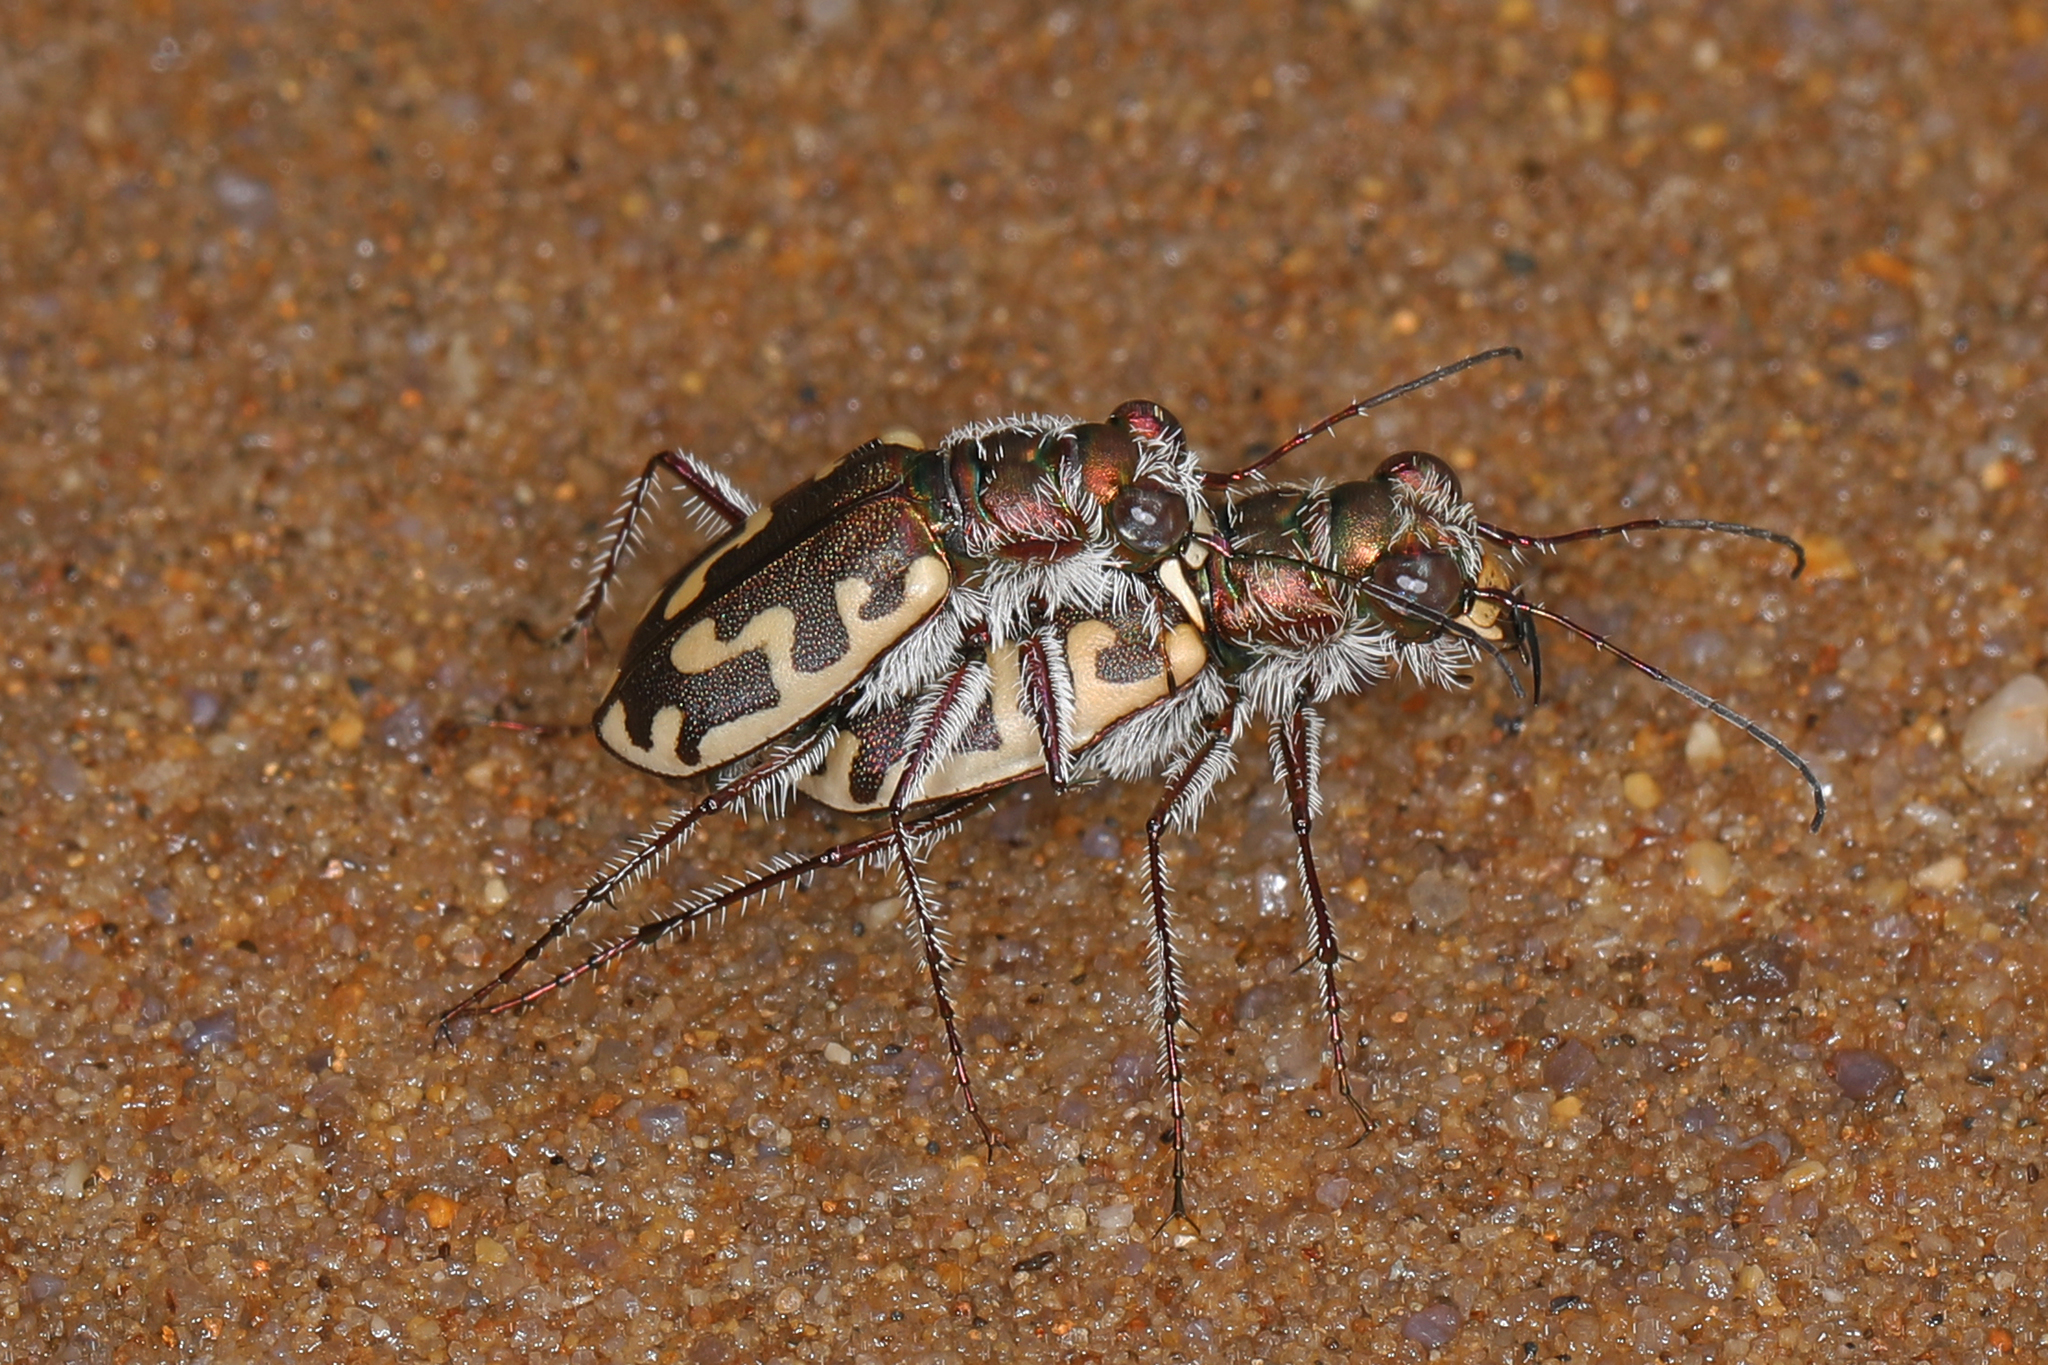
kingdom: Animalia
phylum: Arthropoda
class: Insecta
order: Coleoptera
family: Carabidae
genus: Cicindela
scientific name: Cicindela hirticollis
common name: Hairy-necked tiger beetle
